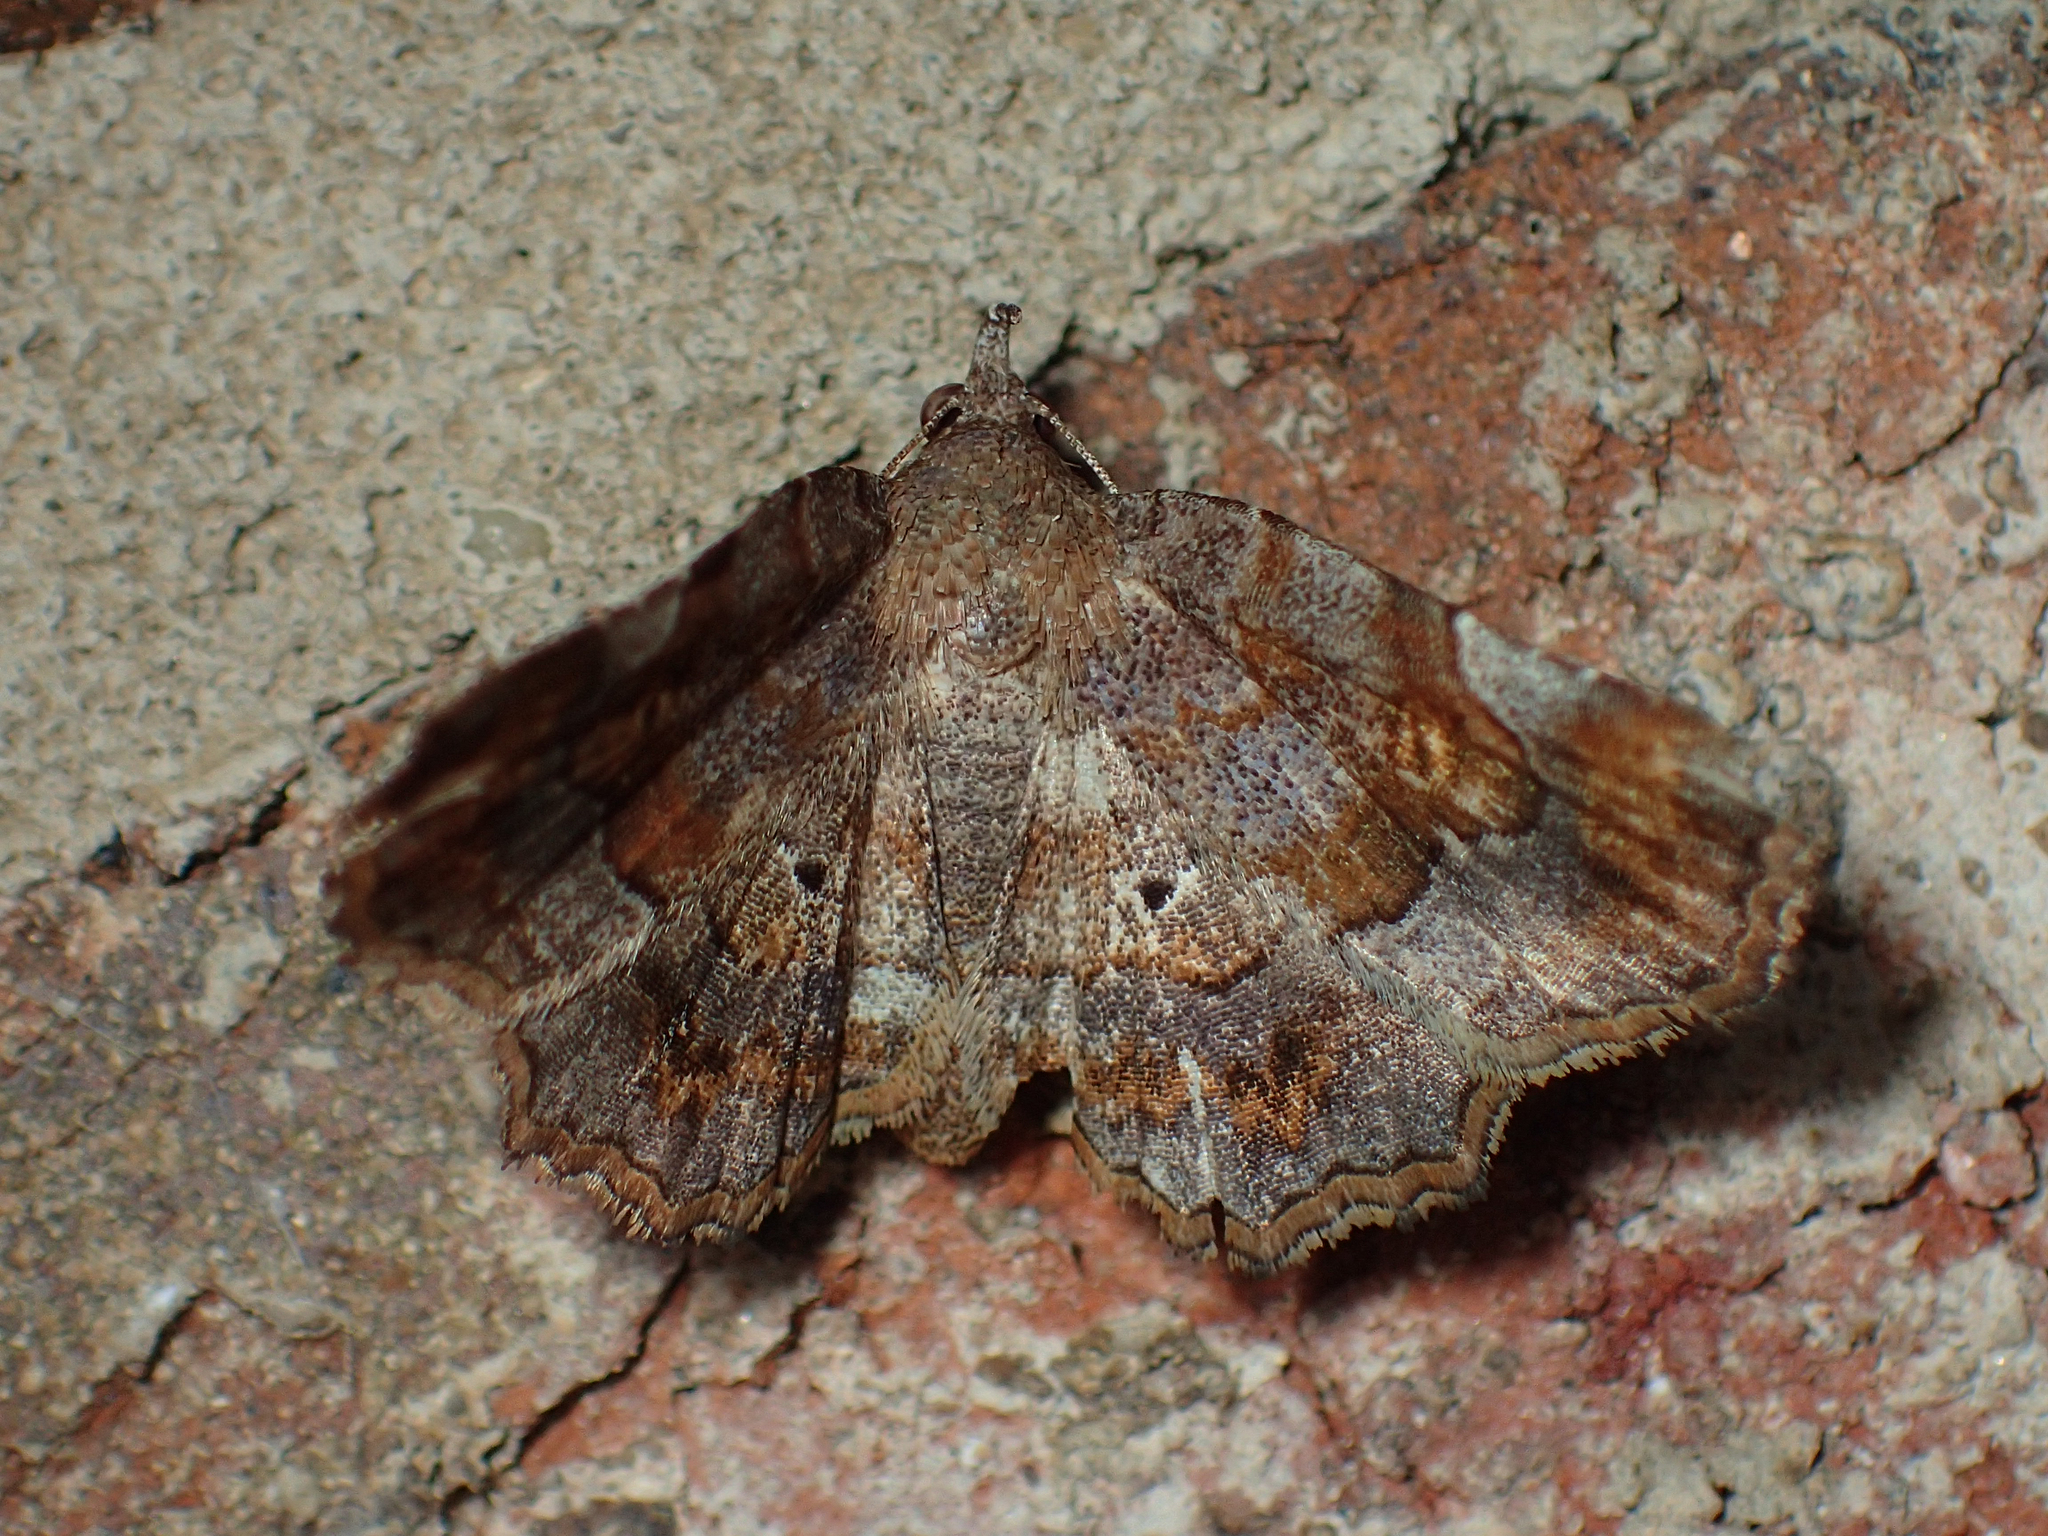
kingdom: Animalia
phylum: Arthropoda
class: Insecta
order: Lepidoptera
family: Erebidae
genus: Pangrapta
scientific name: Pangrapta decoralis
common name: Decorated owlet
